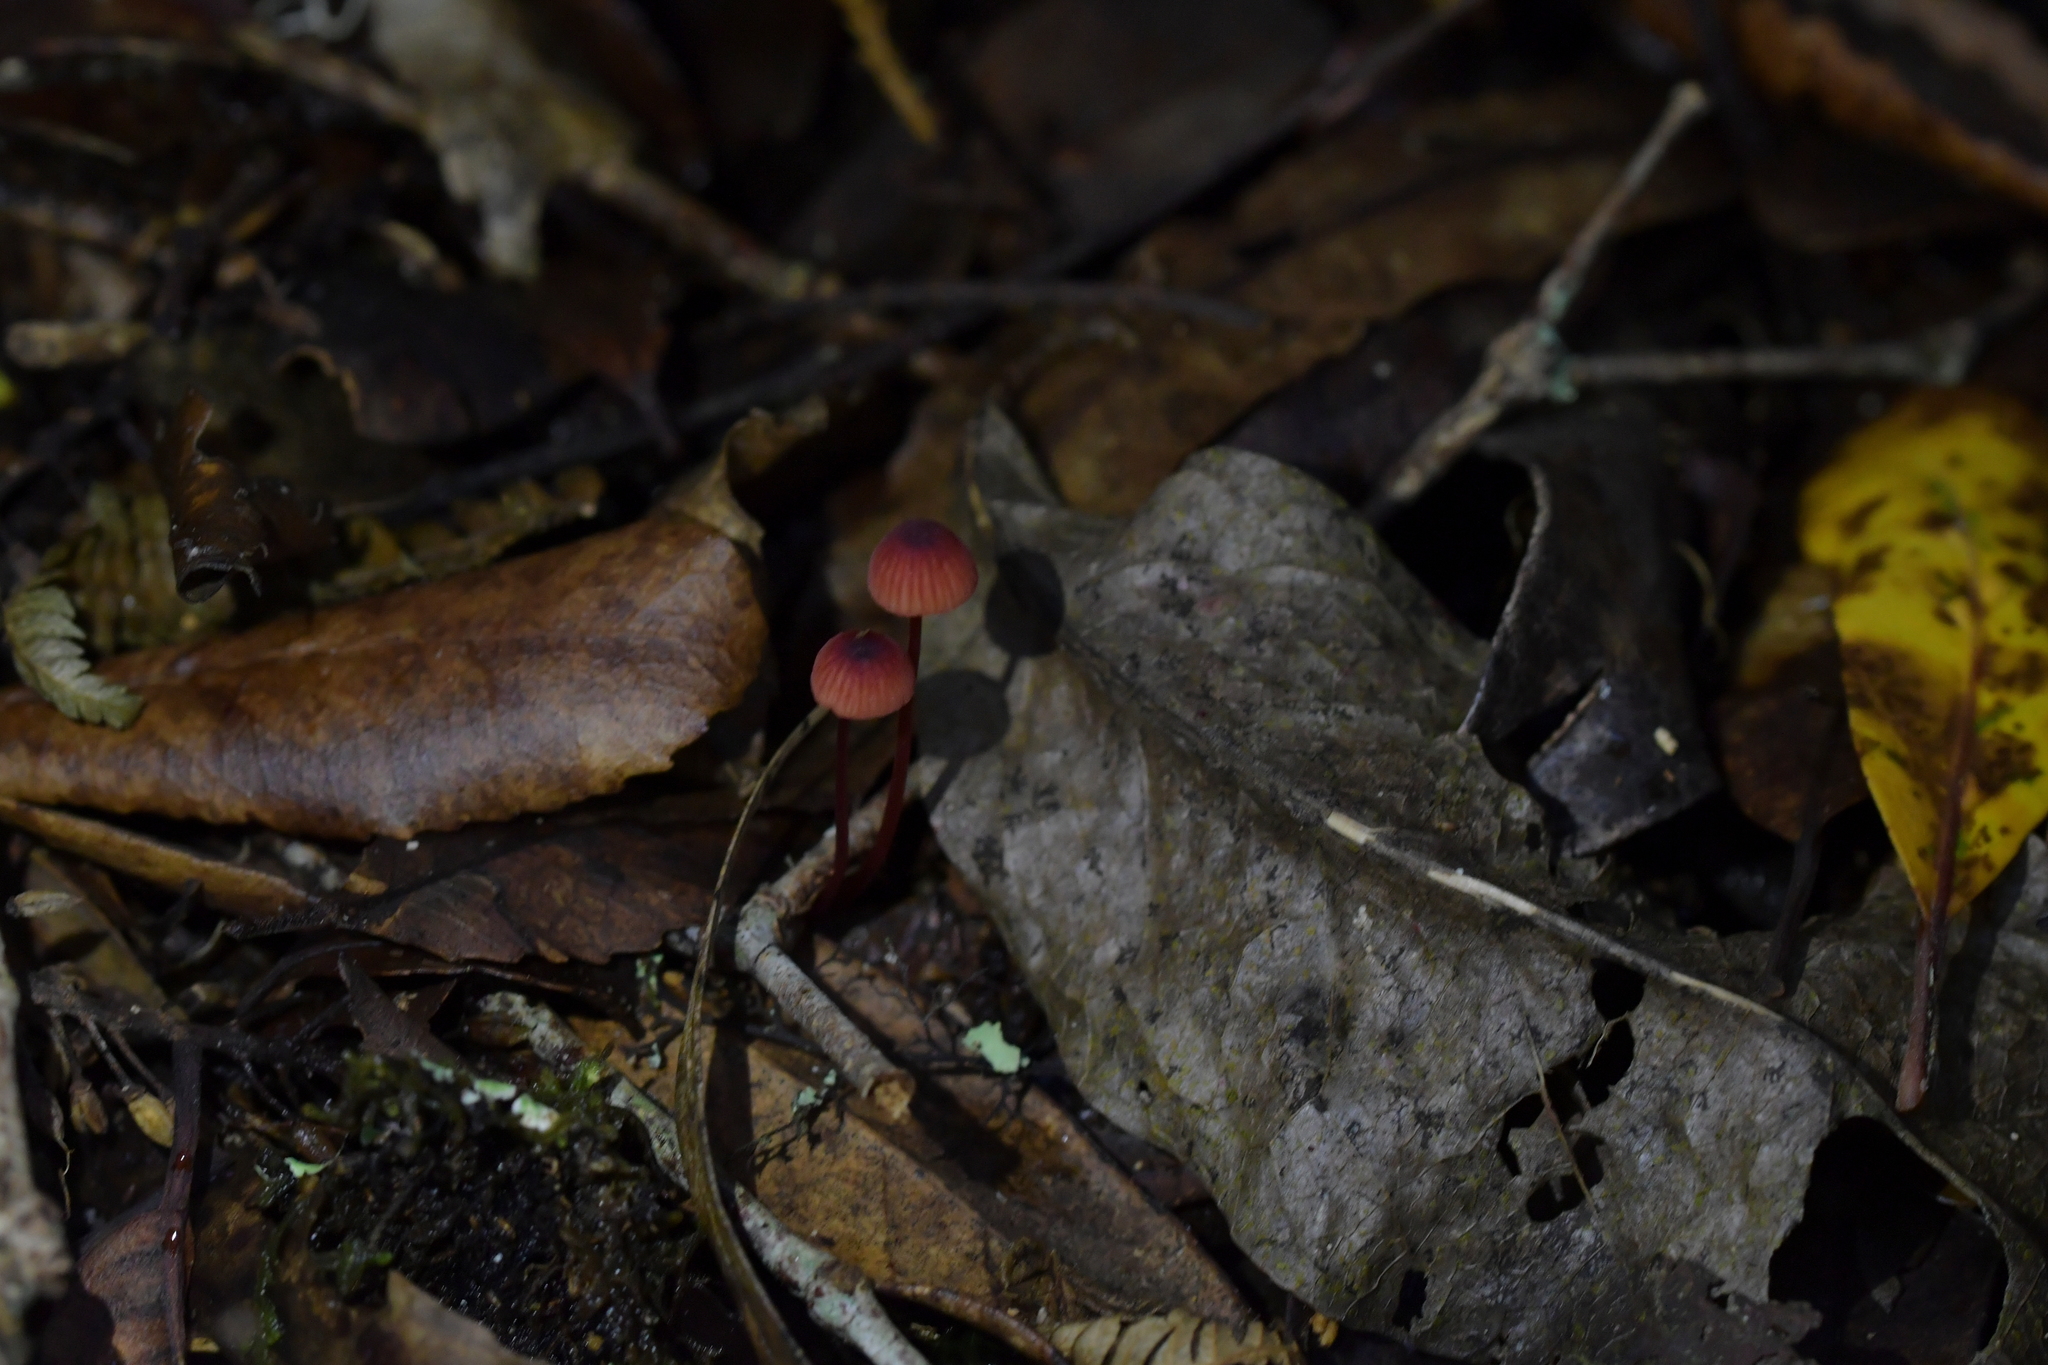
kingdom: Fungi
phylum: Basidiomycota
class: Agaricomycetes
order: Agaricales
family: Mycenaceae
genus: Mycena
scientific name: Mycena ura
